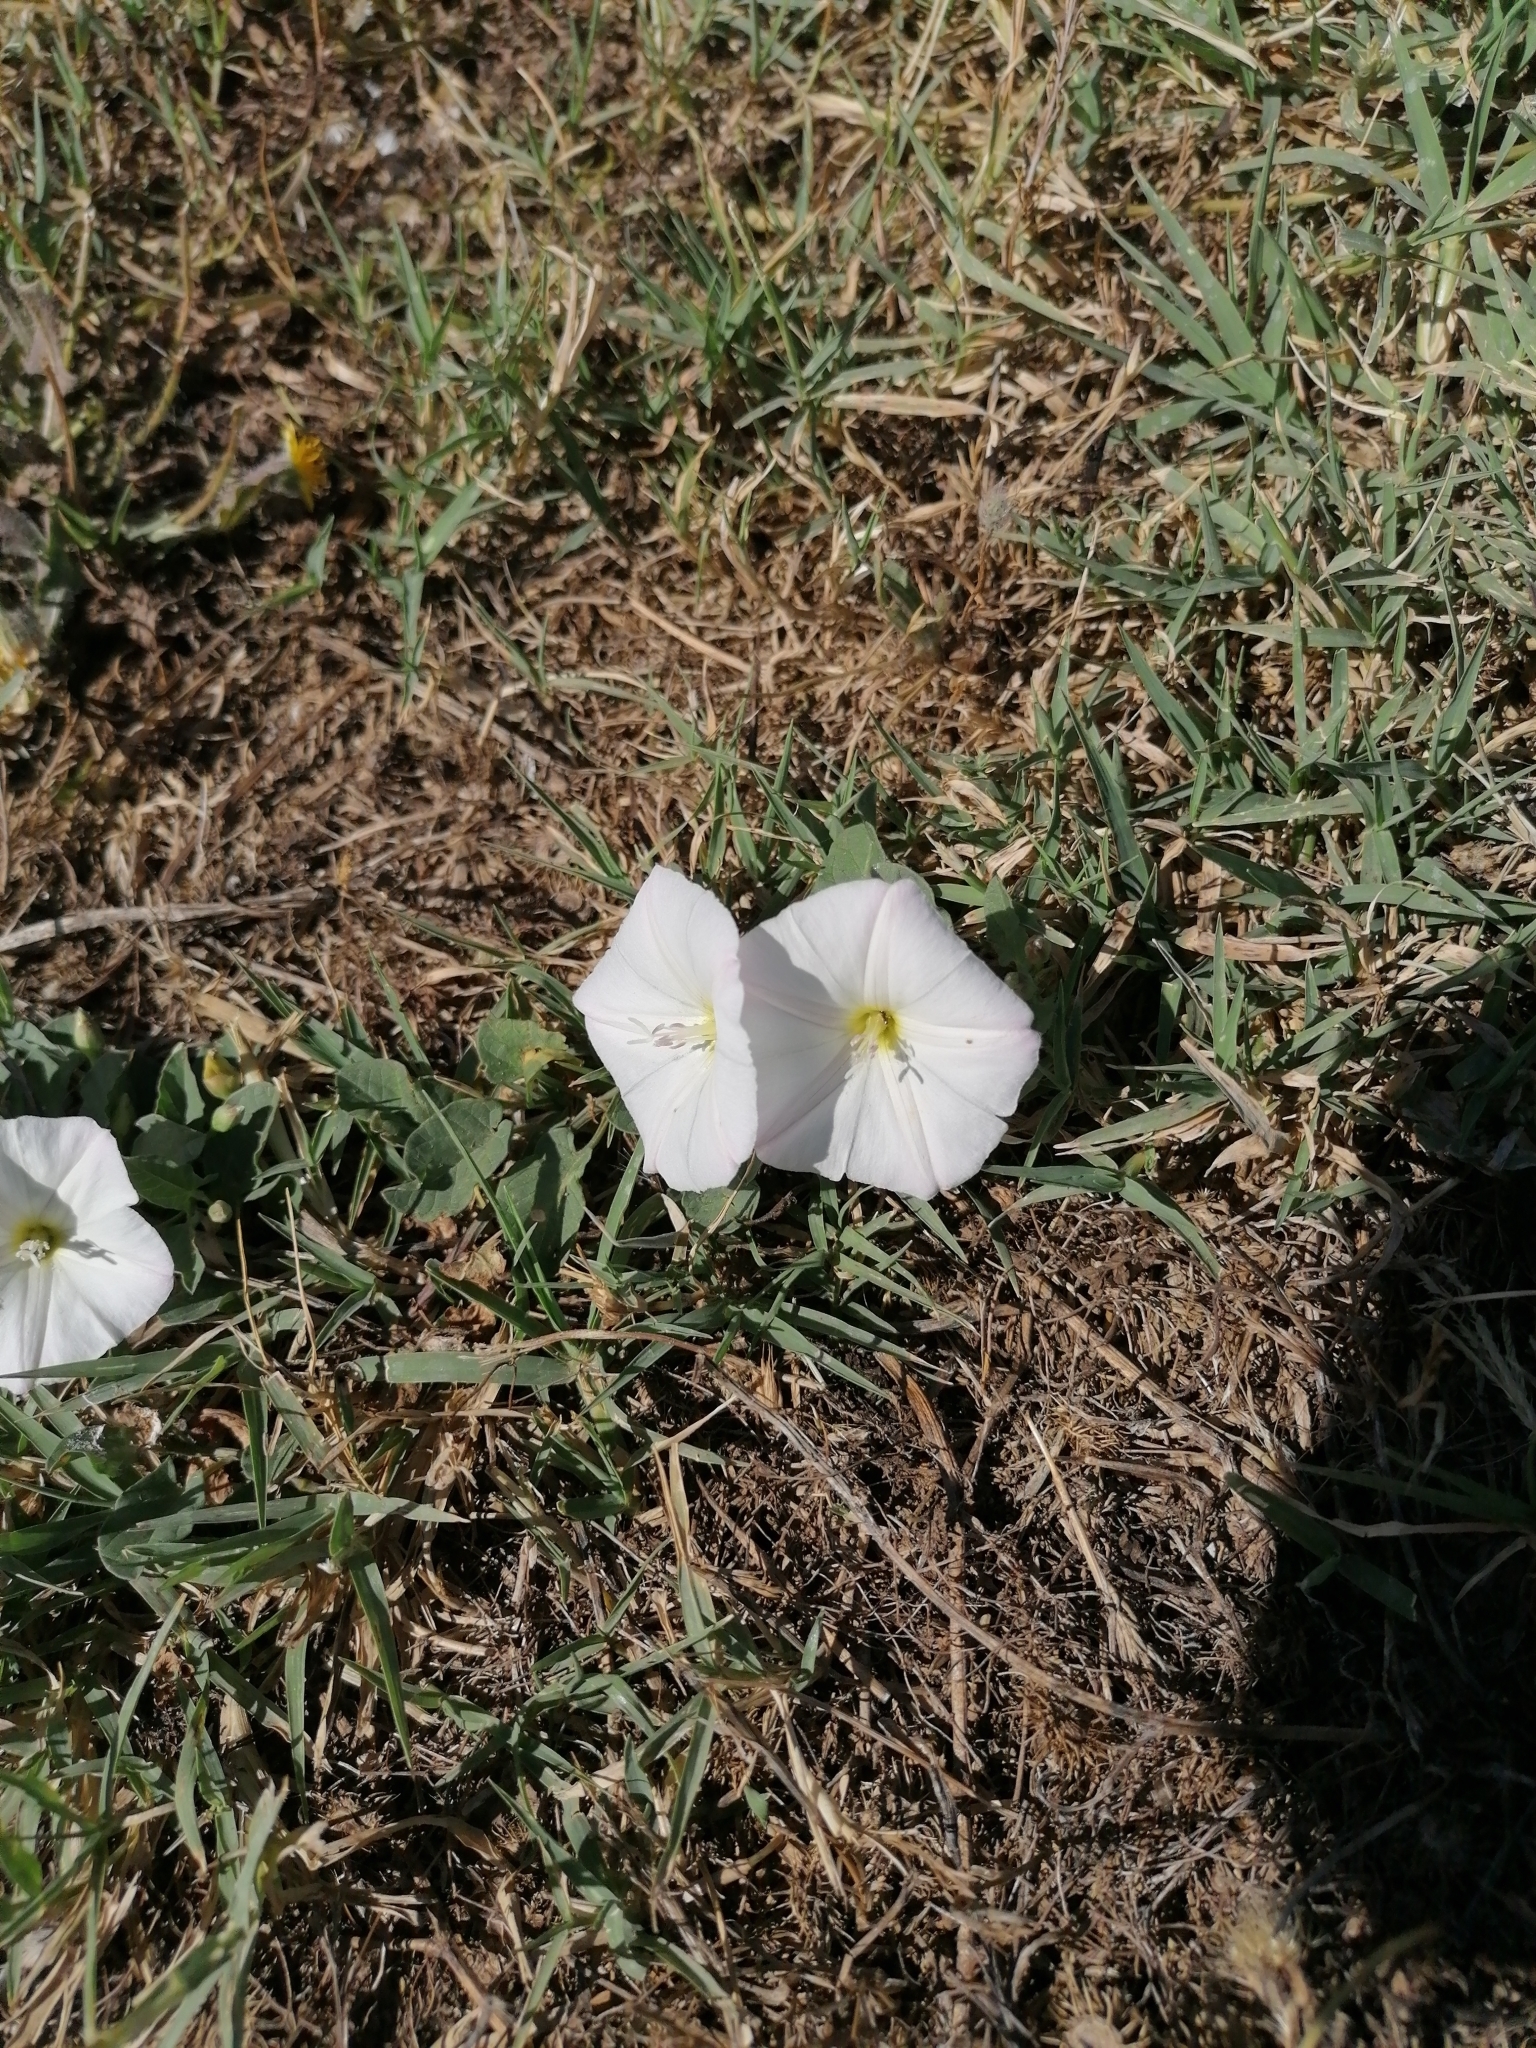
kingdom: Plantae
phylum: Tracheophyta
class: Magnoliopsida
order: Solanales
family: Convolvulaceae
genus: Convolvulus
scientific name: Convolvulus arvensis
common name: Field bindweed
